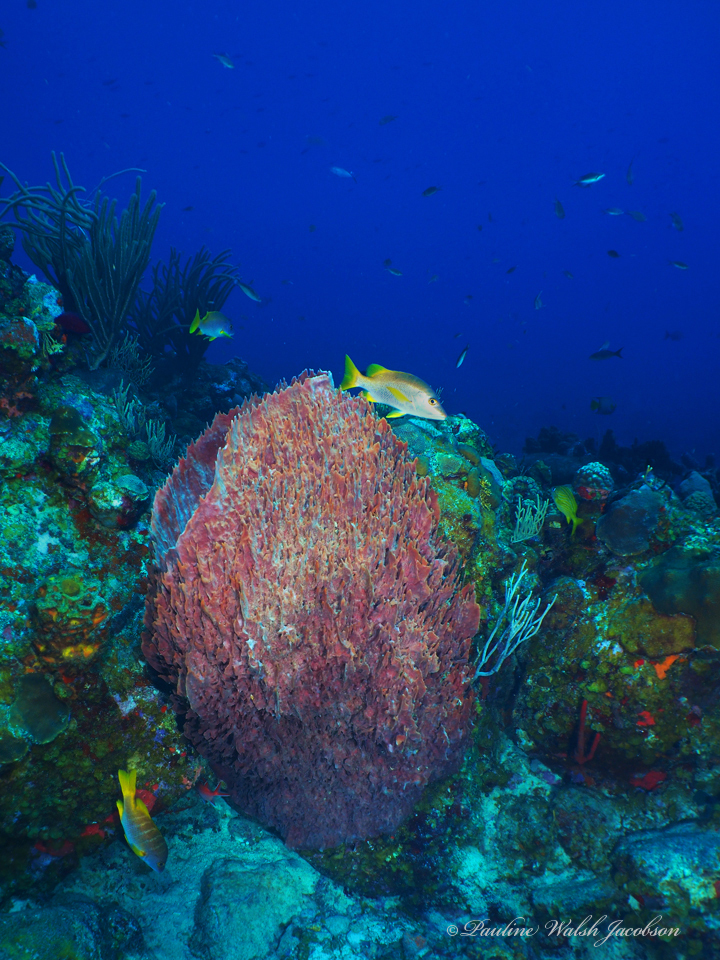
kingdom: Animalia
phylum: Chordata
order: Perciformes
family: Lutjanidae
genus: Lutjanus
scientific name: Lutjanus apodus
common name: Schoolmaster
